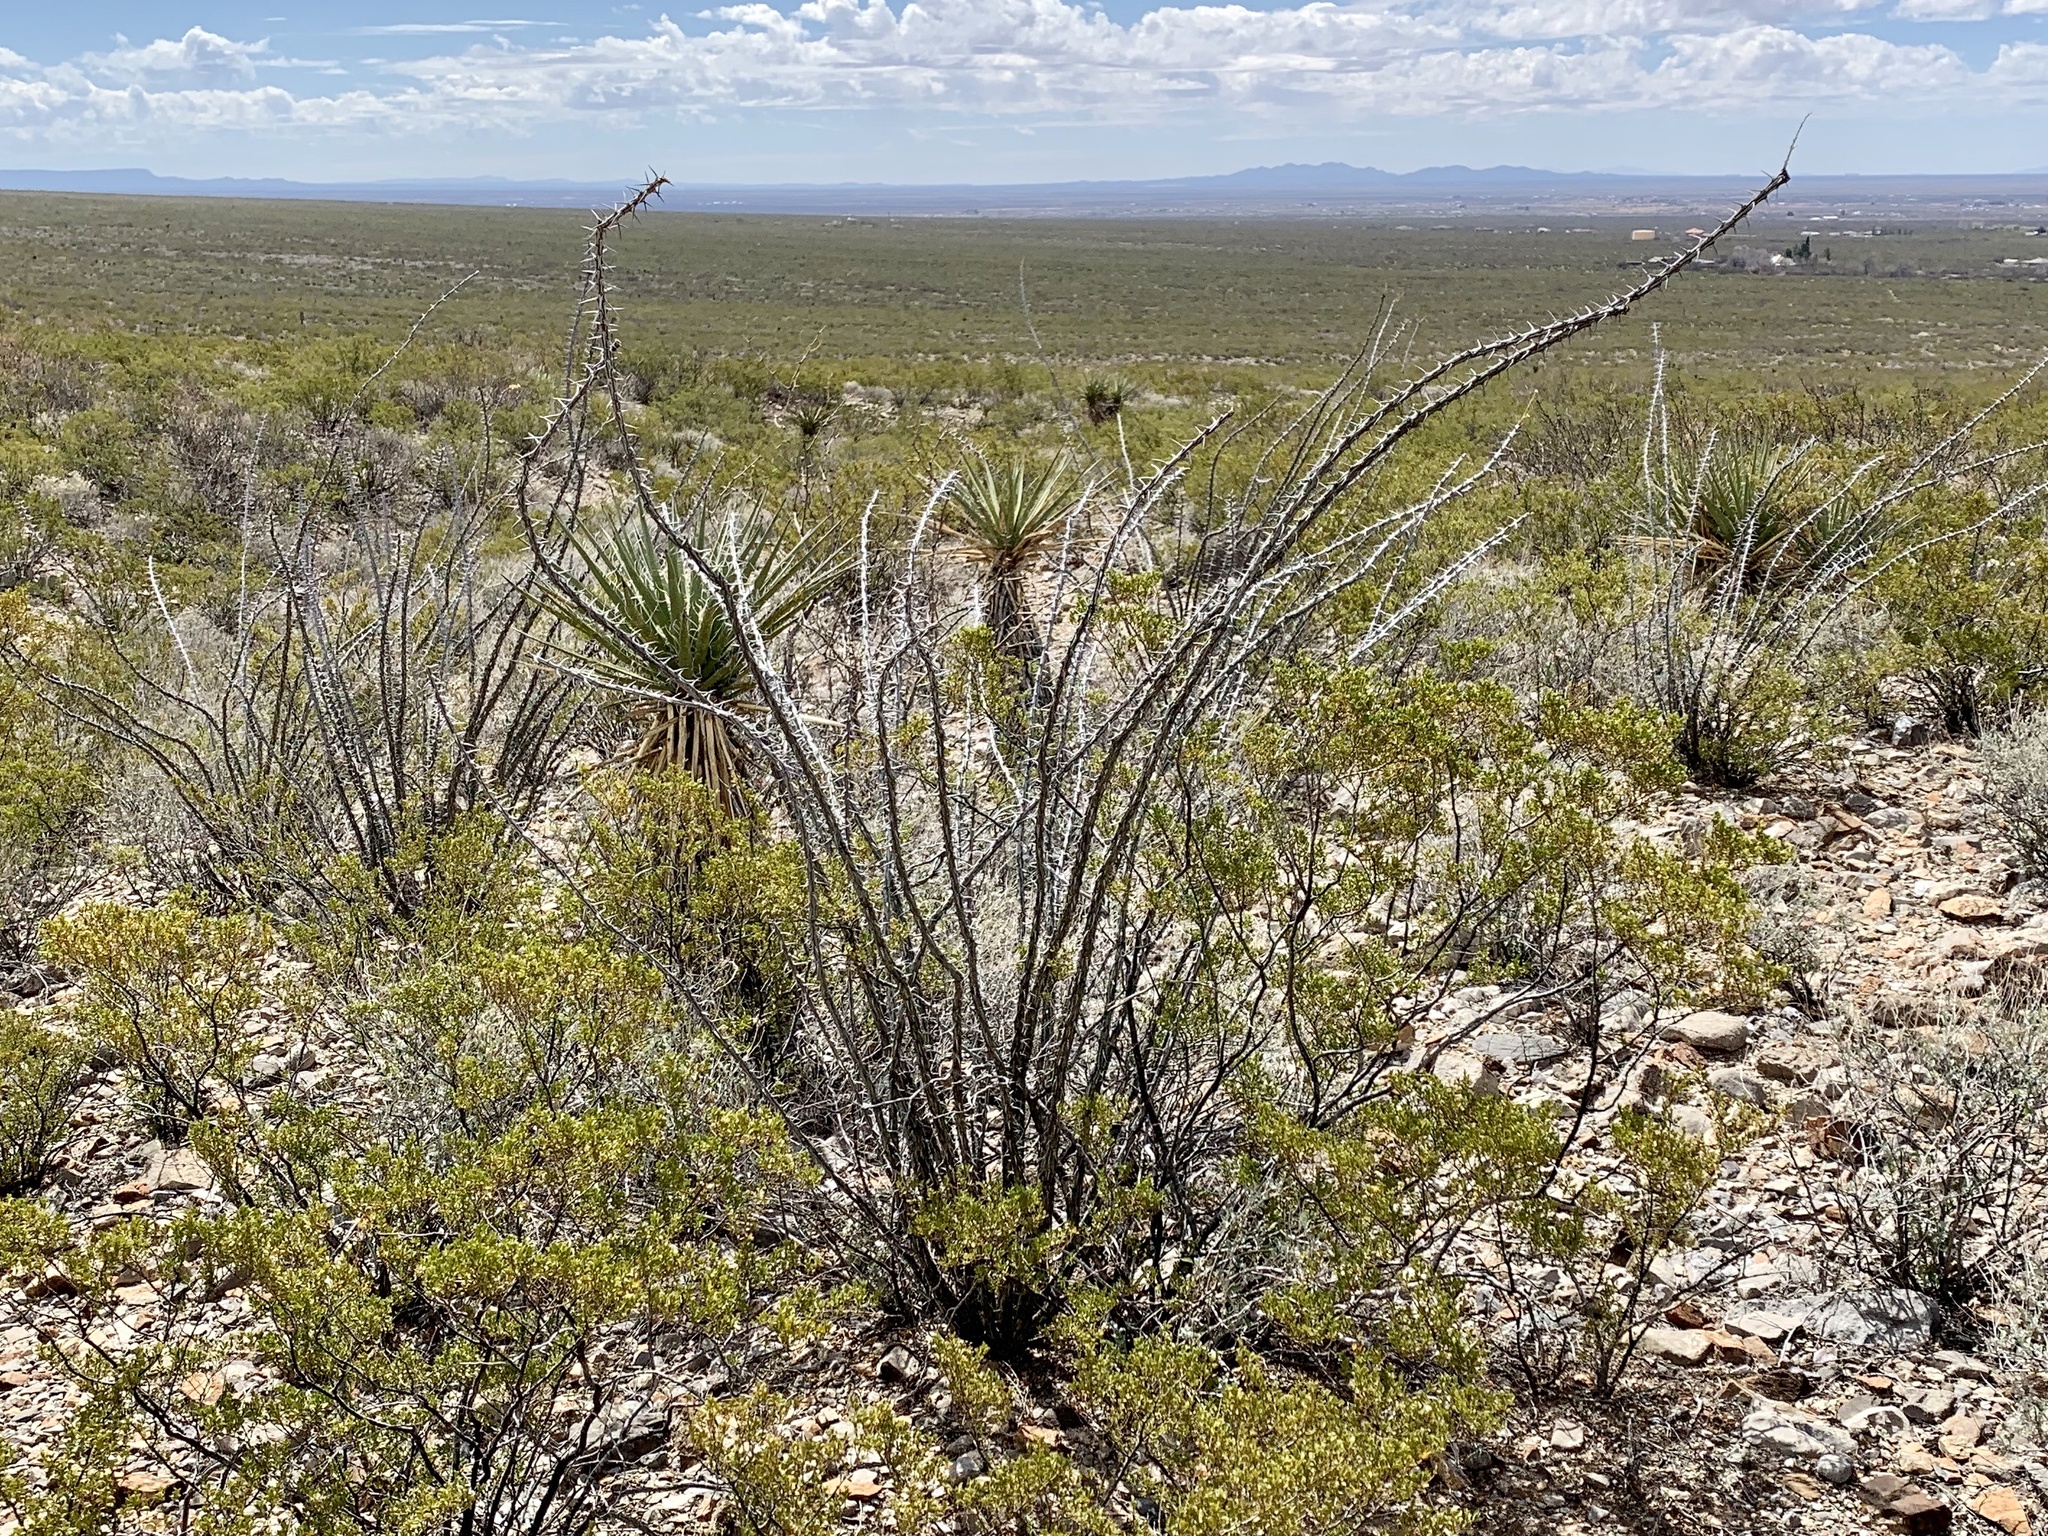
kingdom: Plantae
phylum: Tracheophyta
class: Magnoliopsida
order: Ericales
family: Fouquieriaceae
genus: Fouquieria
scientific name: Fouquieria splendens
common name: Vine-cactus
